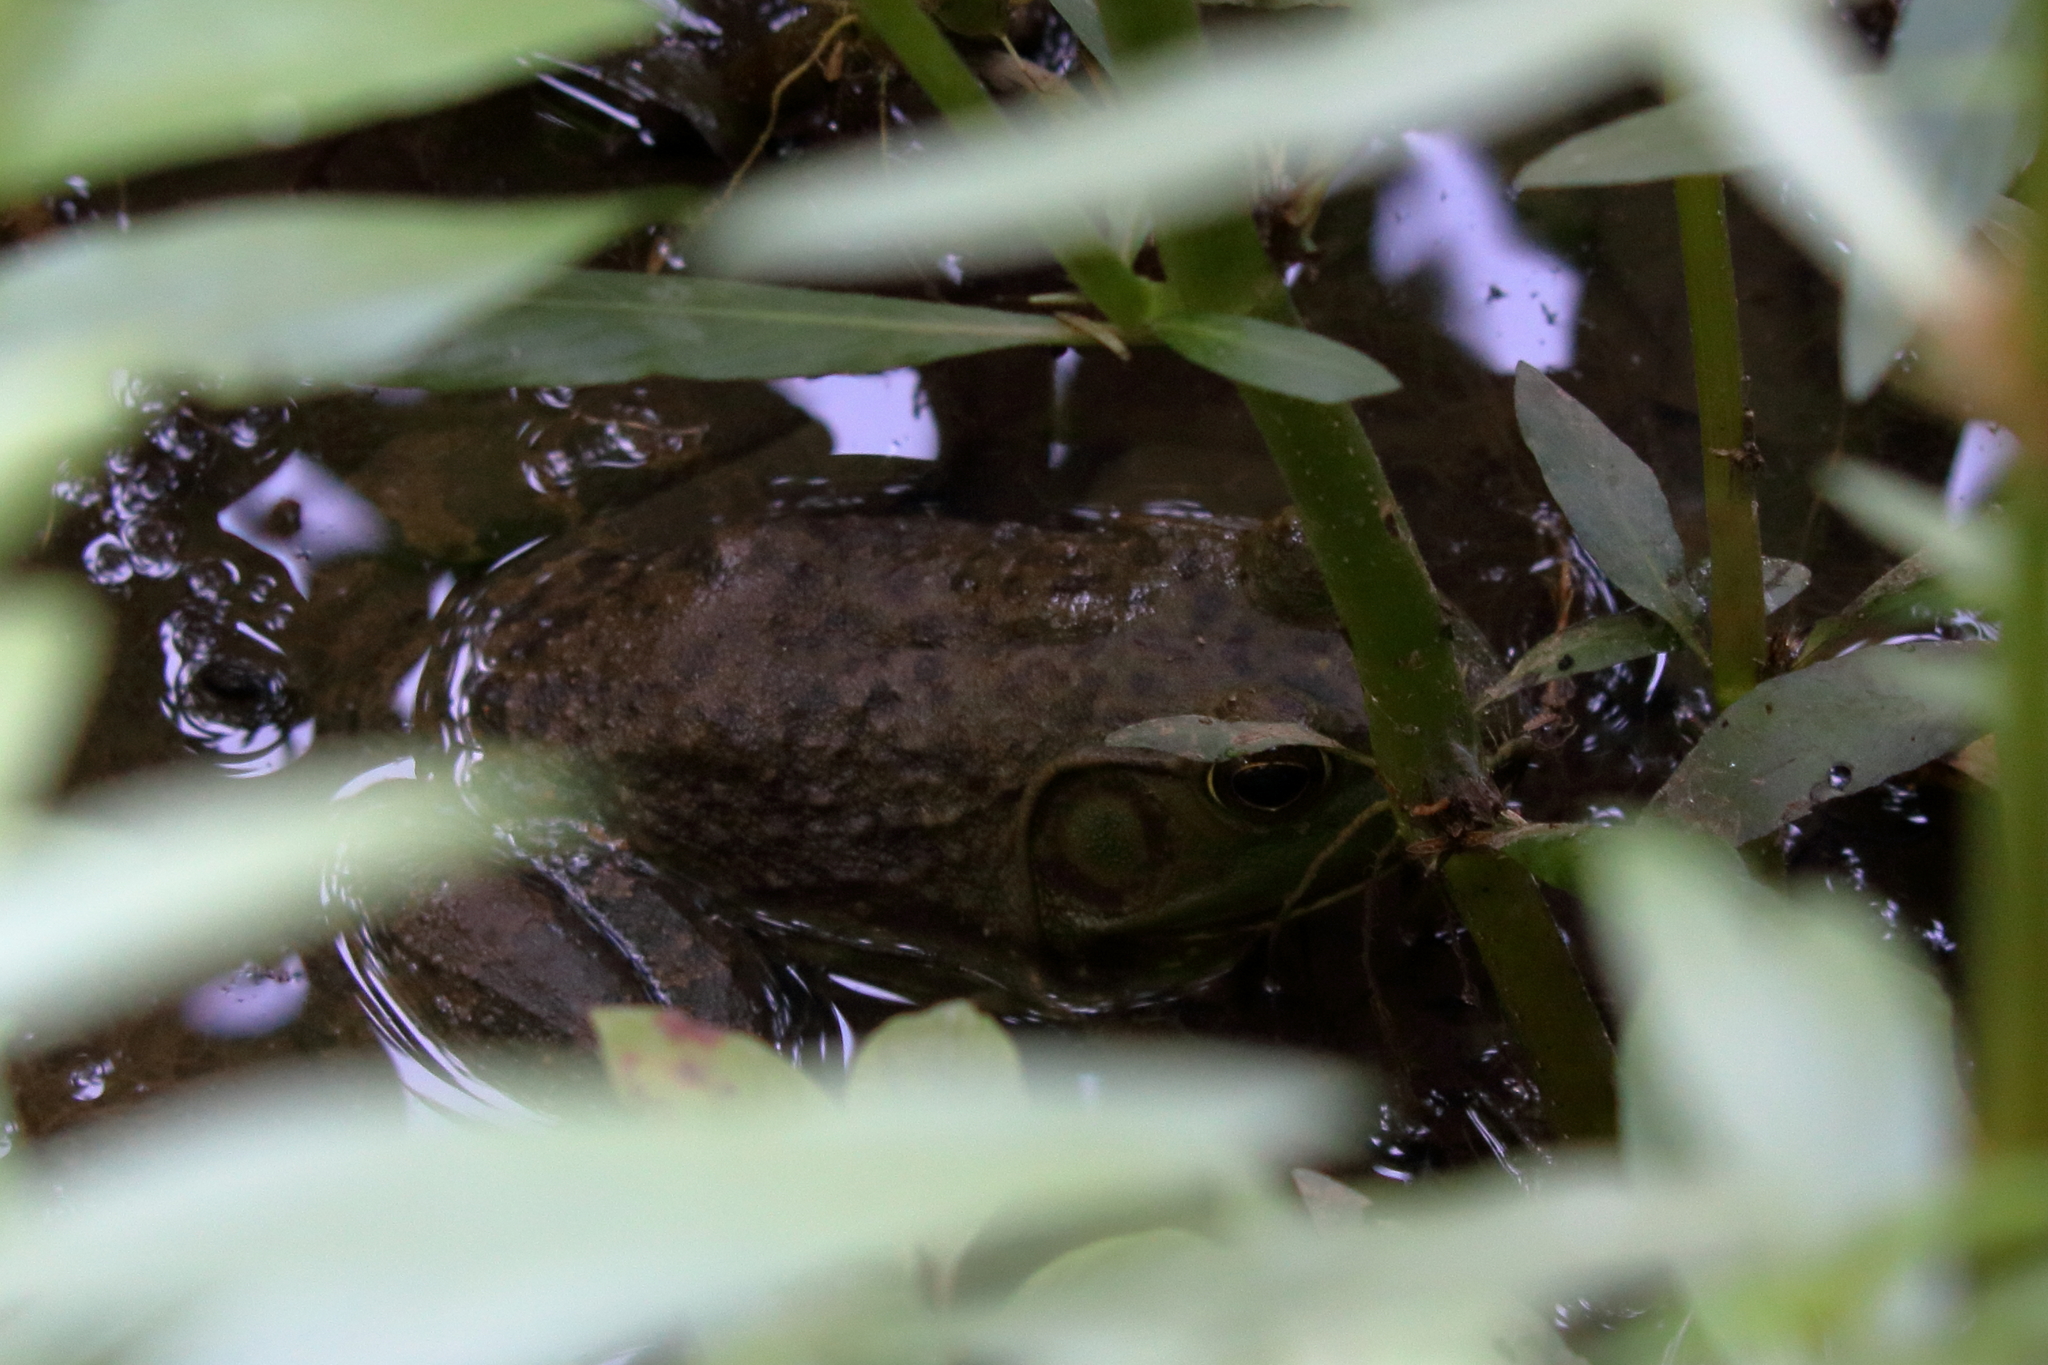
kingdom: Animalia
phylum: Chordata
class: Amphibia
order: Anura
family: Ranidae
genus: Lithobates
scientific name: Lithobates catesbeianus
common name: American bullfrog
